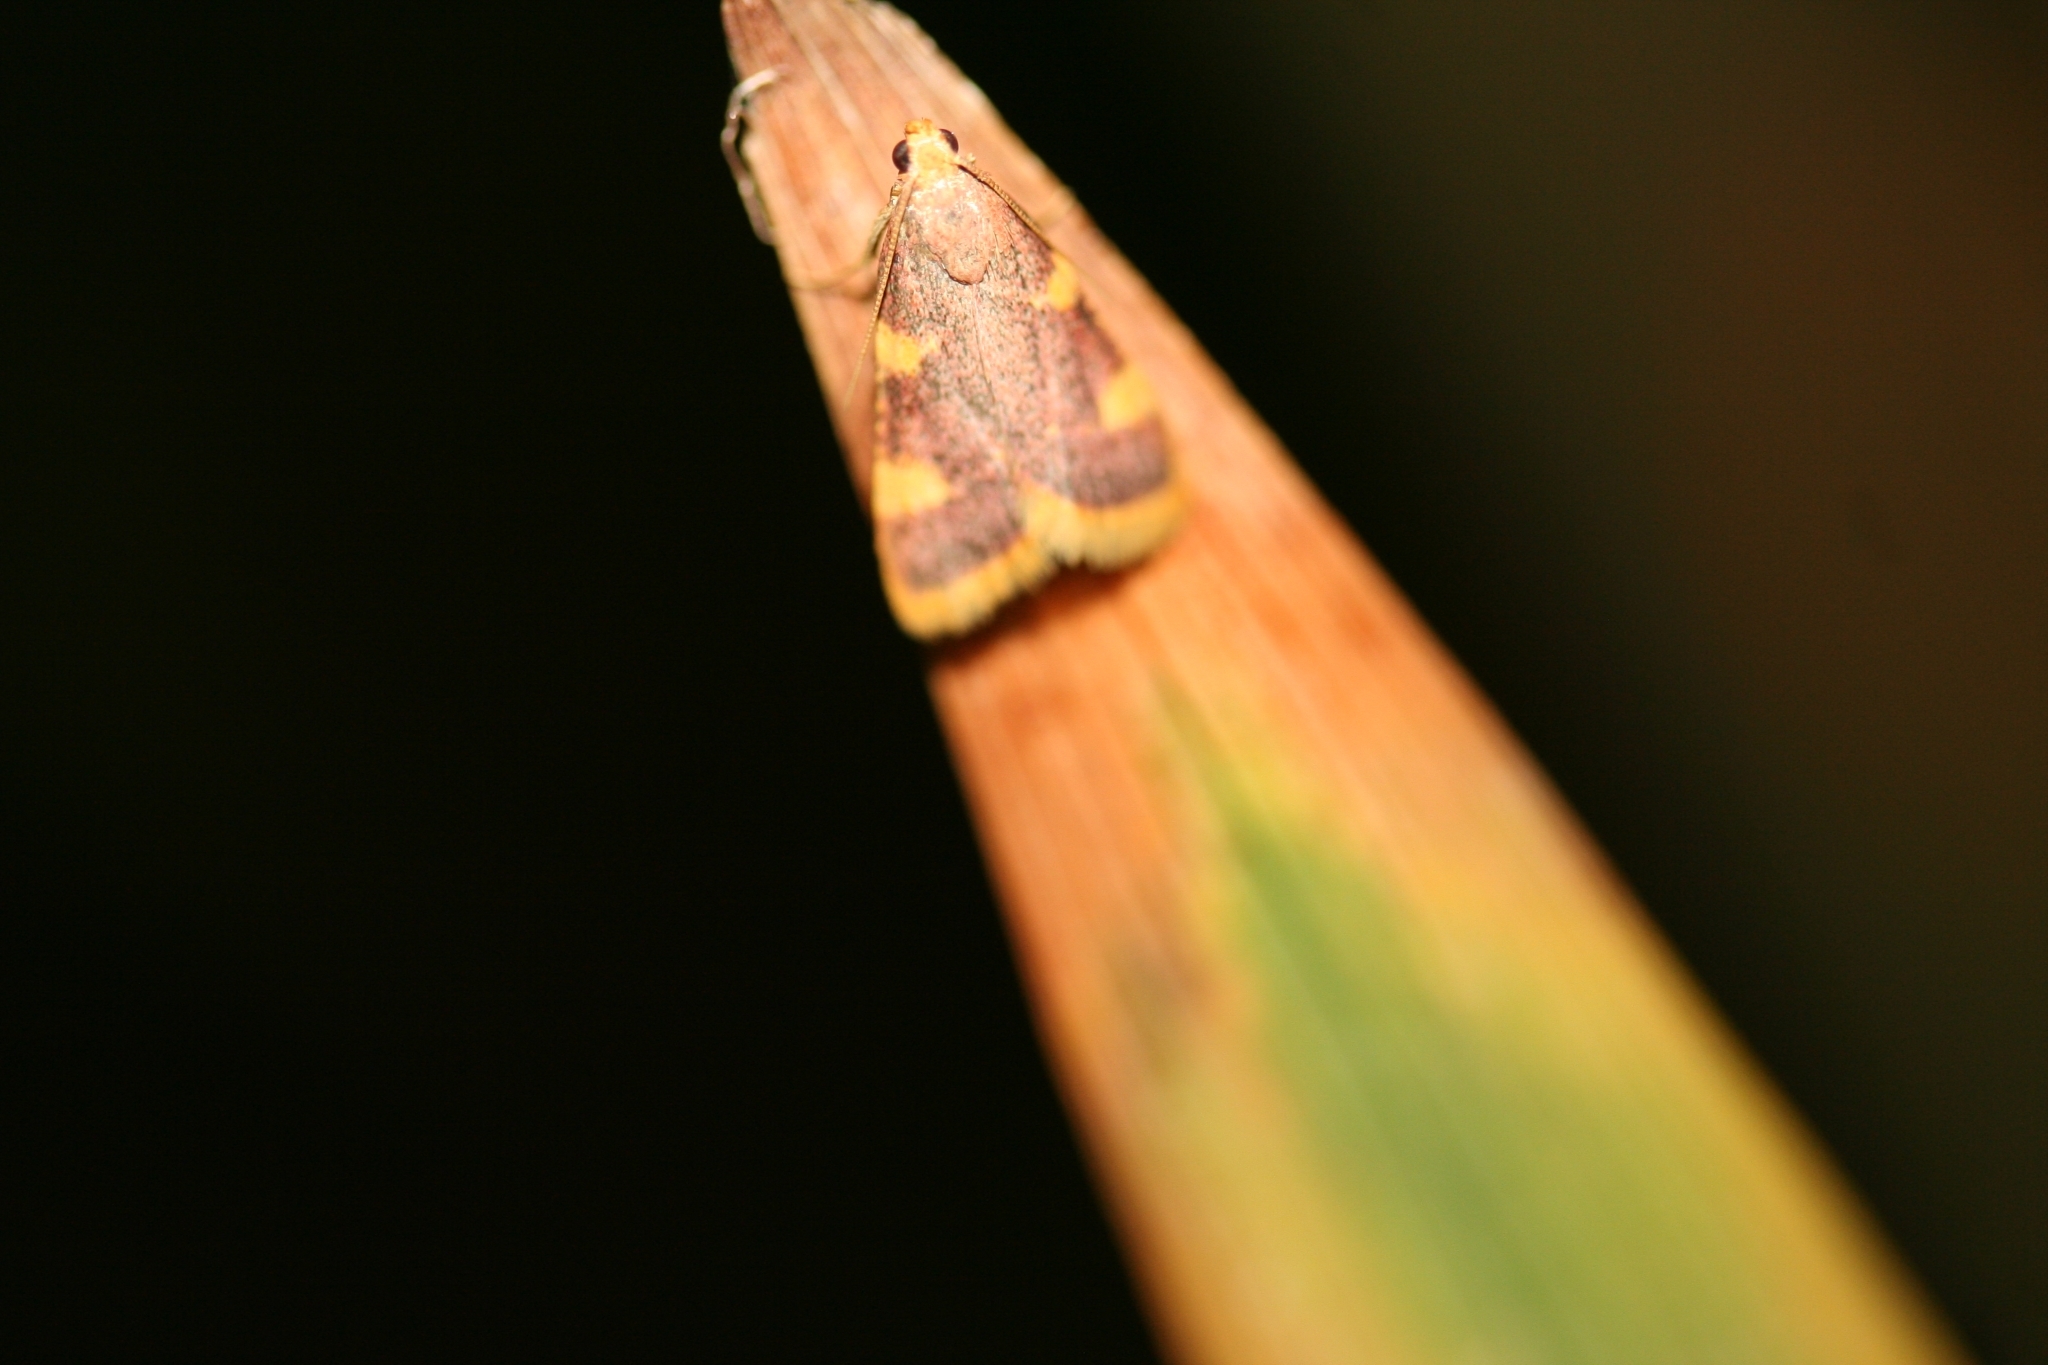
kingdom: Animalia
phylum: Arthropoda
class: Insecta
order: Lepidoptera
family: Pyralidae
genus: Hypsopygia
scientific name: Hypsopygia costalis
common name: Gold triangle
